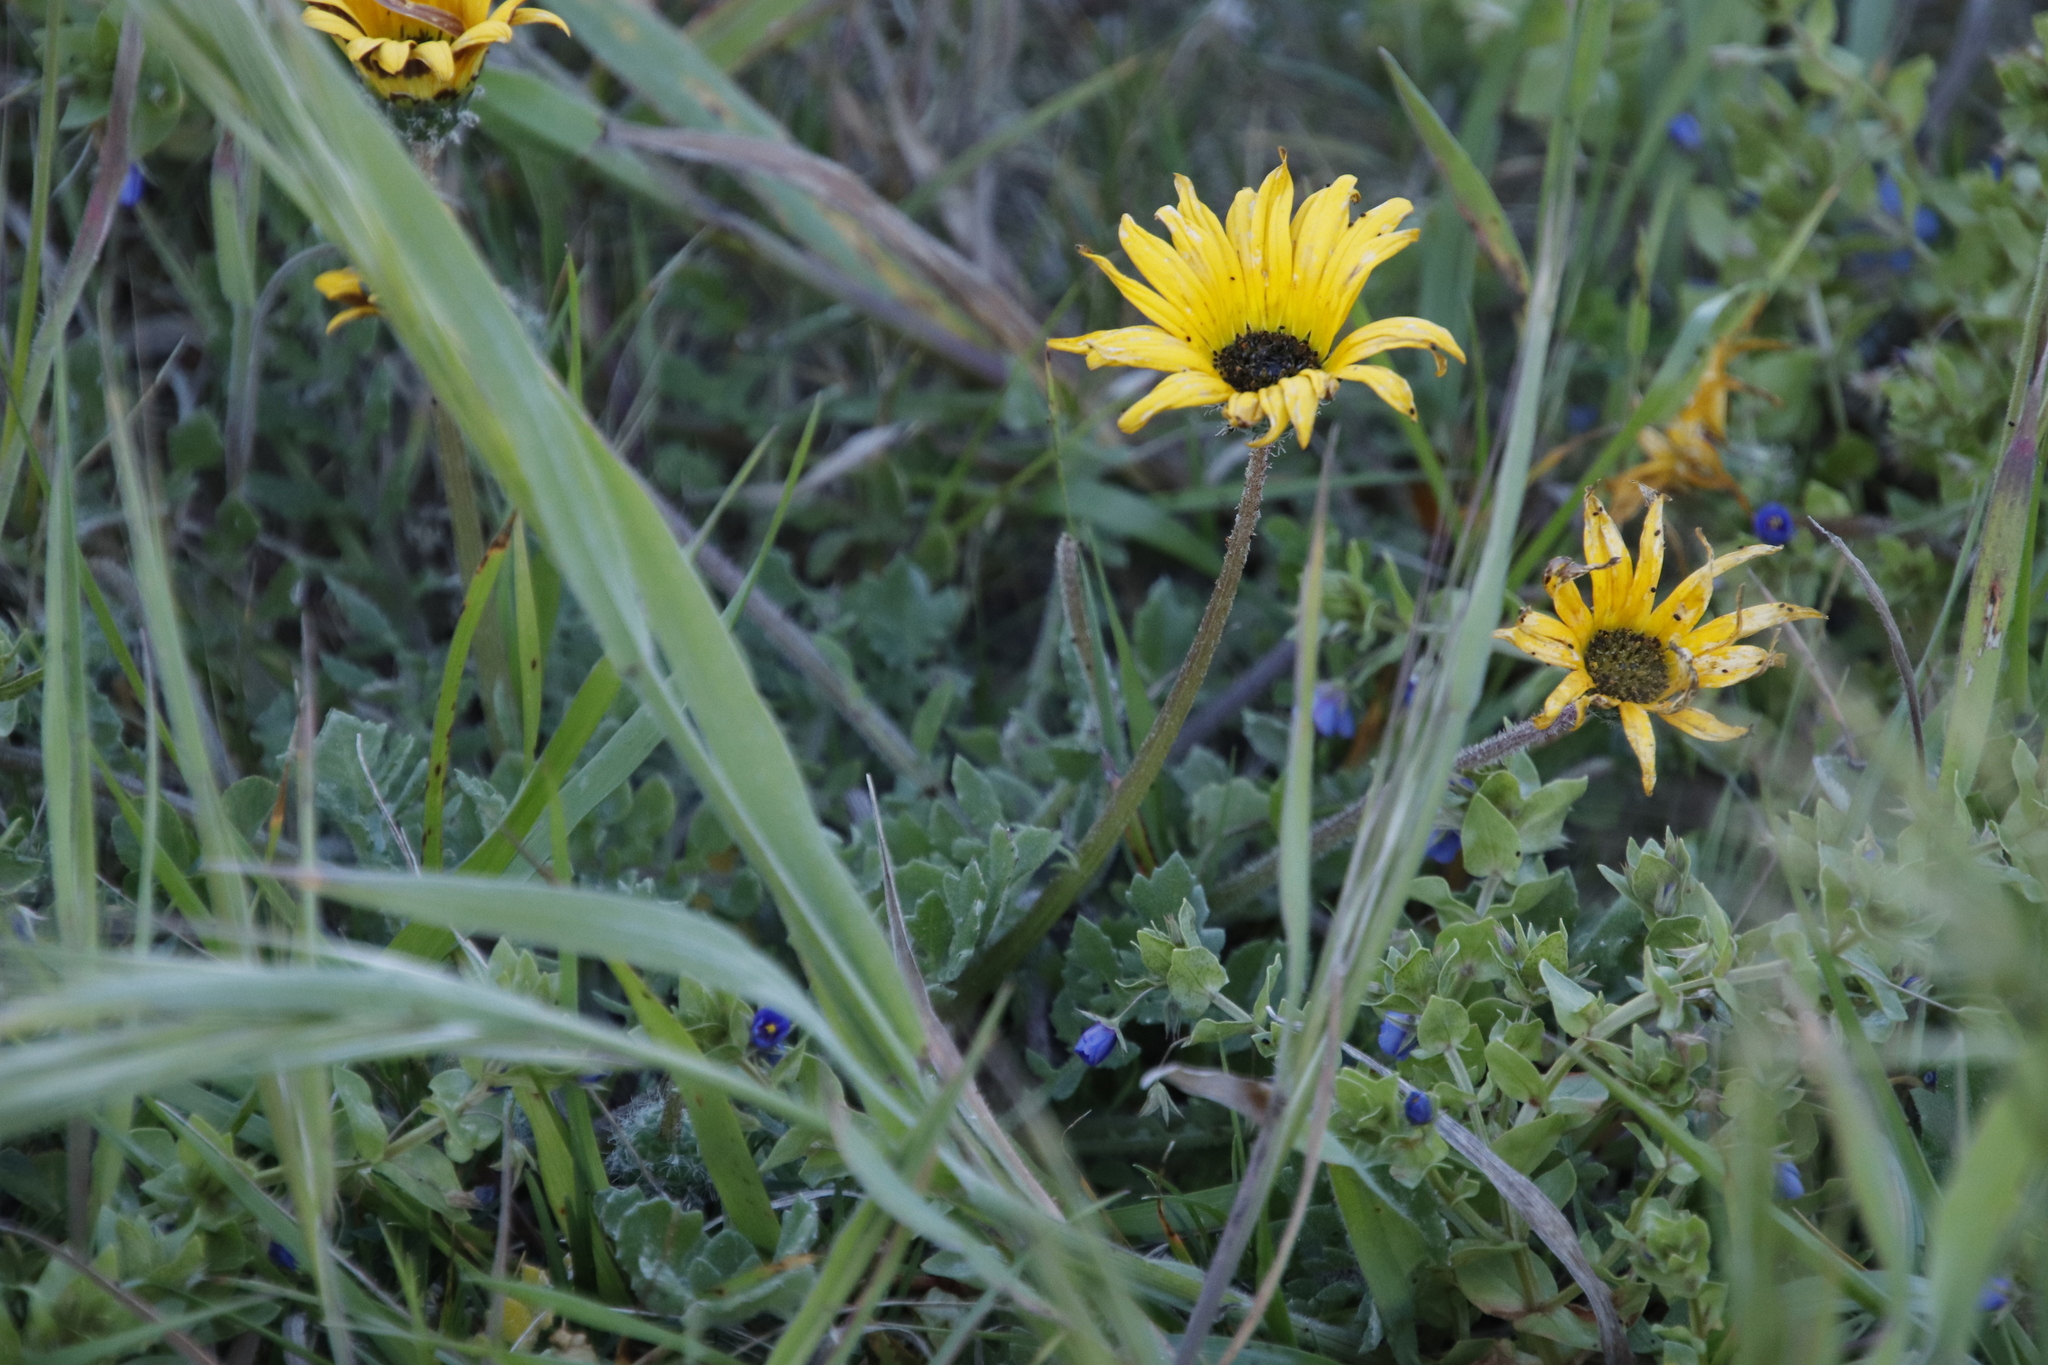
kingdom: Plantae
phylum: Tracheophyta
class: Magnoliopsida
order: Asterales
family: Asteraceae
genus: Arctotheca
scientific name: Arctotheca calendula
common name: Capeweed
